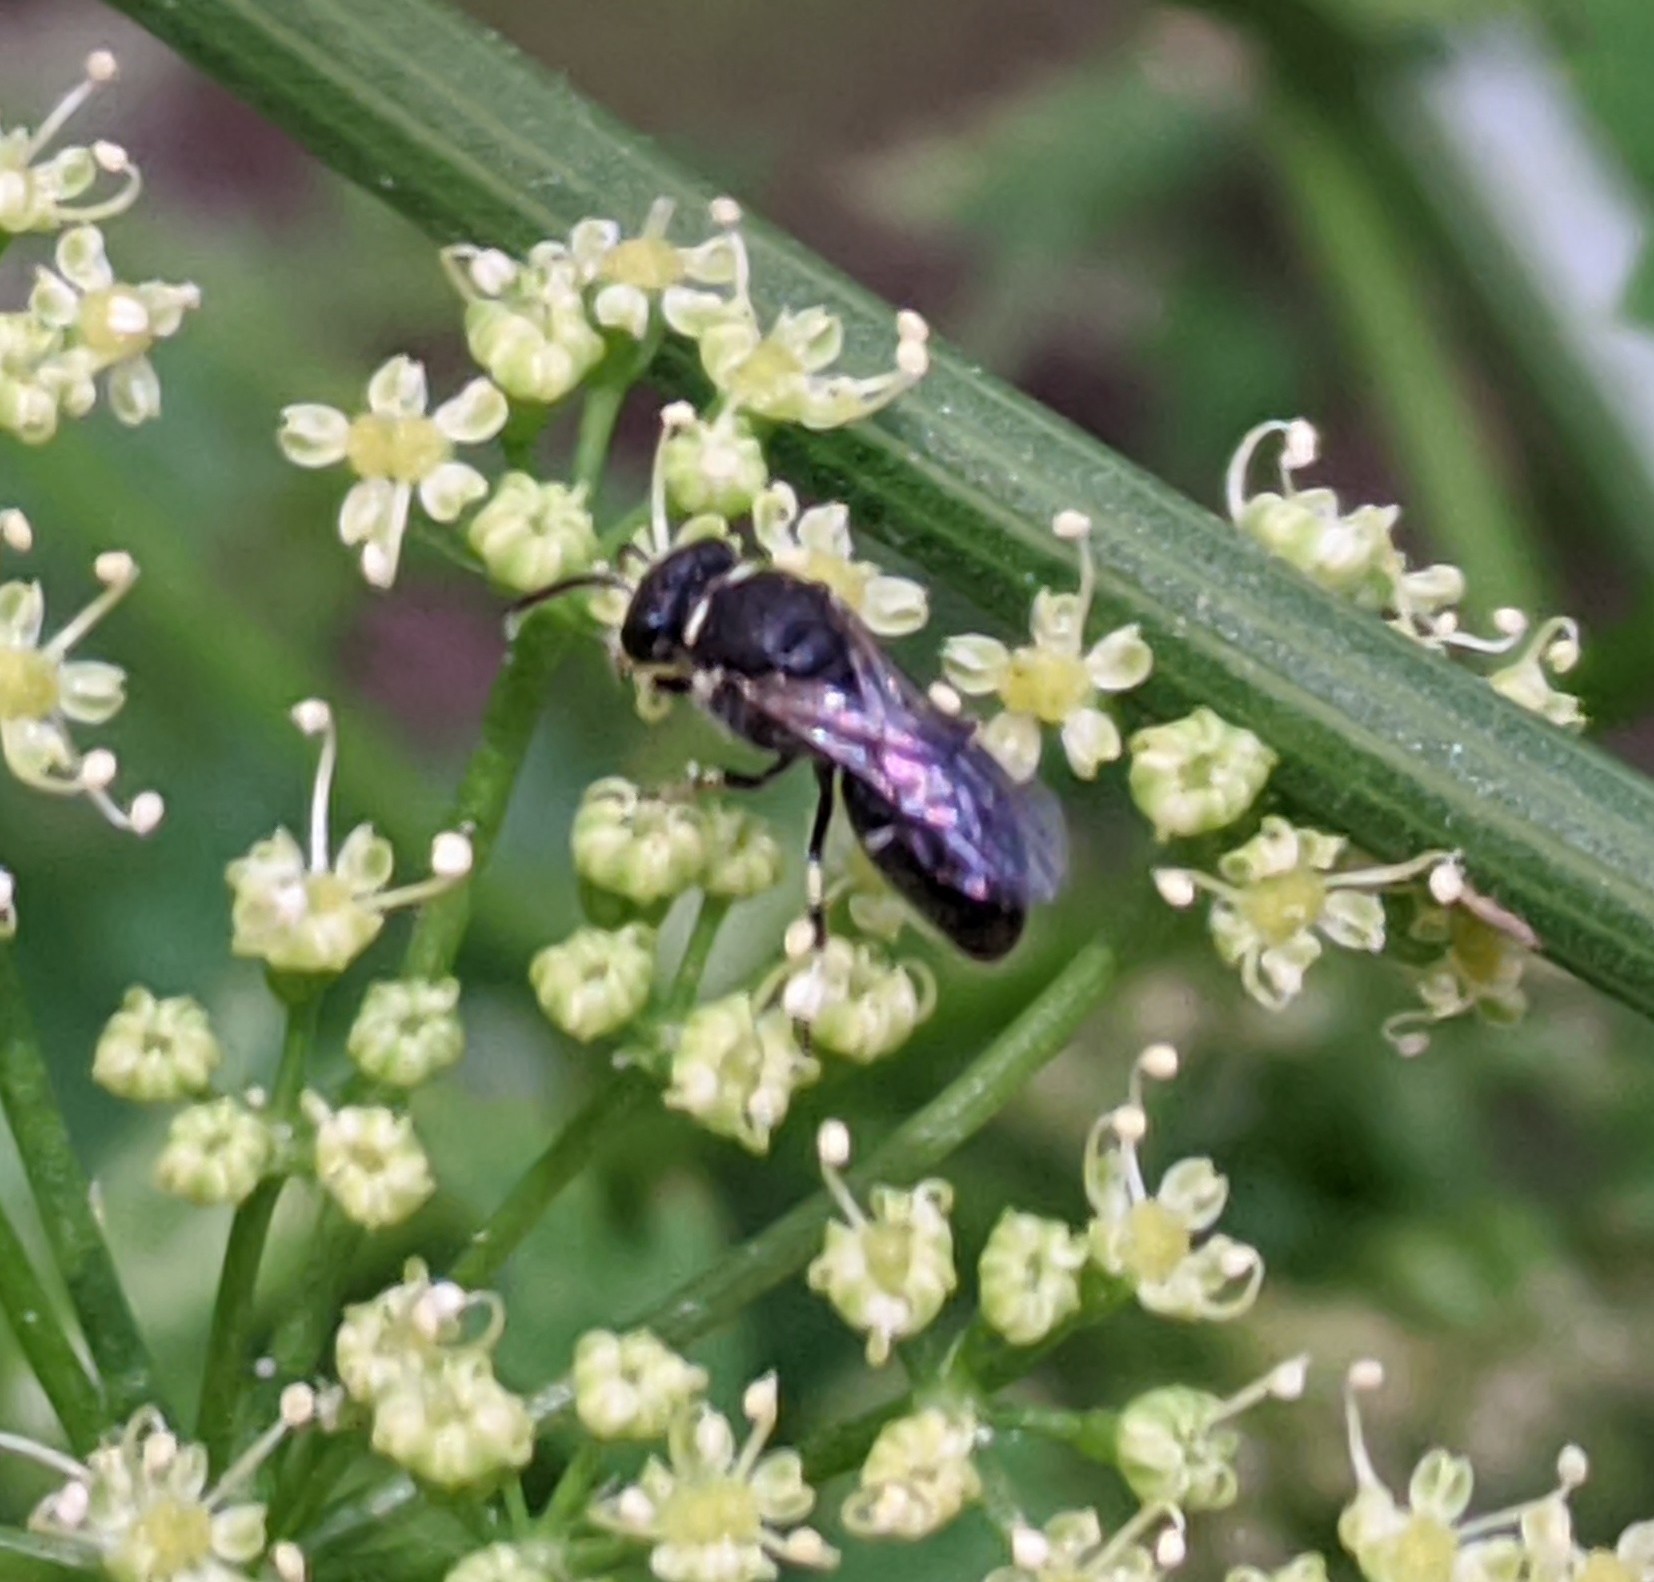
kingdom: Animalia
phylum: Arthropoda
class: Insecta
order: Hymenoptera
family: Colletidae
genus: Hylaeus
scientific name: Hylaeus
